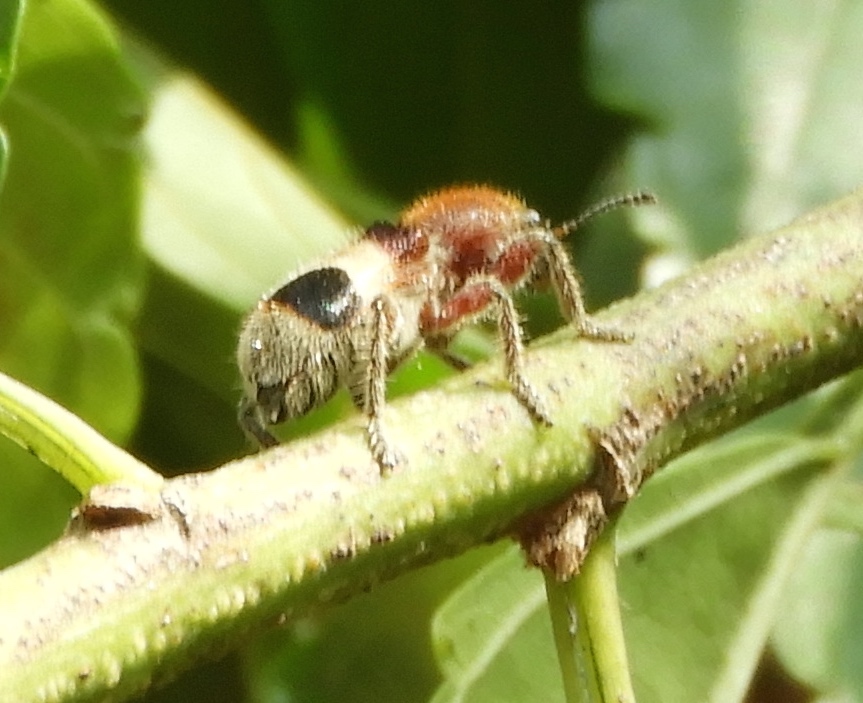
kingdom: Animalia
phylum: Arthropoda
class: Insecta
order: Coleoptera
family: Cleridae
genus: Enoclerus
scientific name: Enoclerus quadriguttatus
